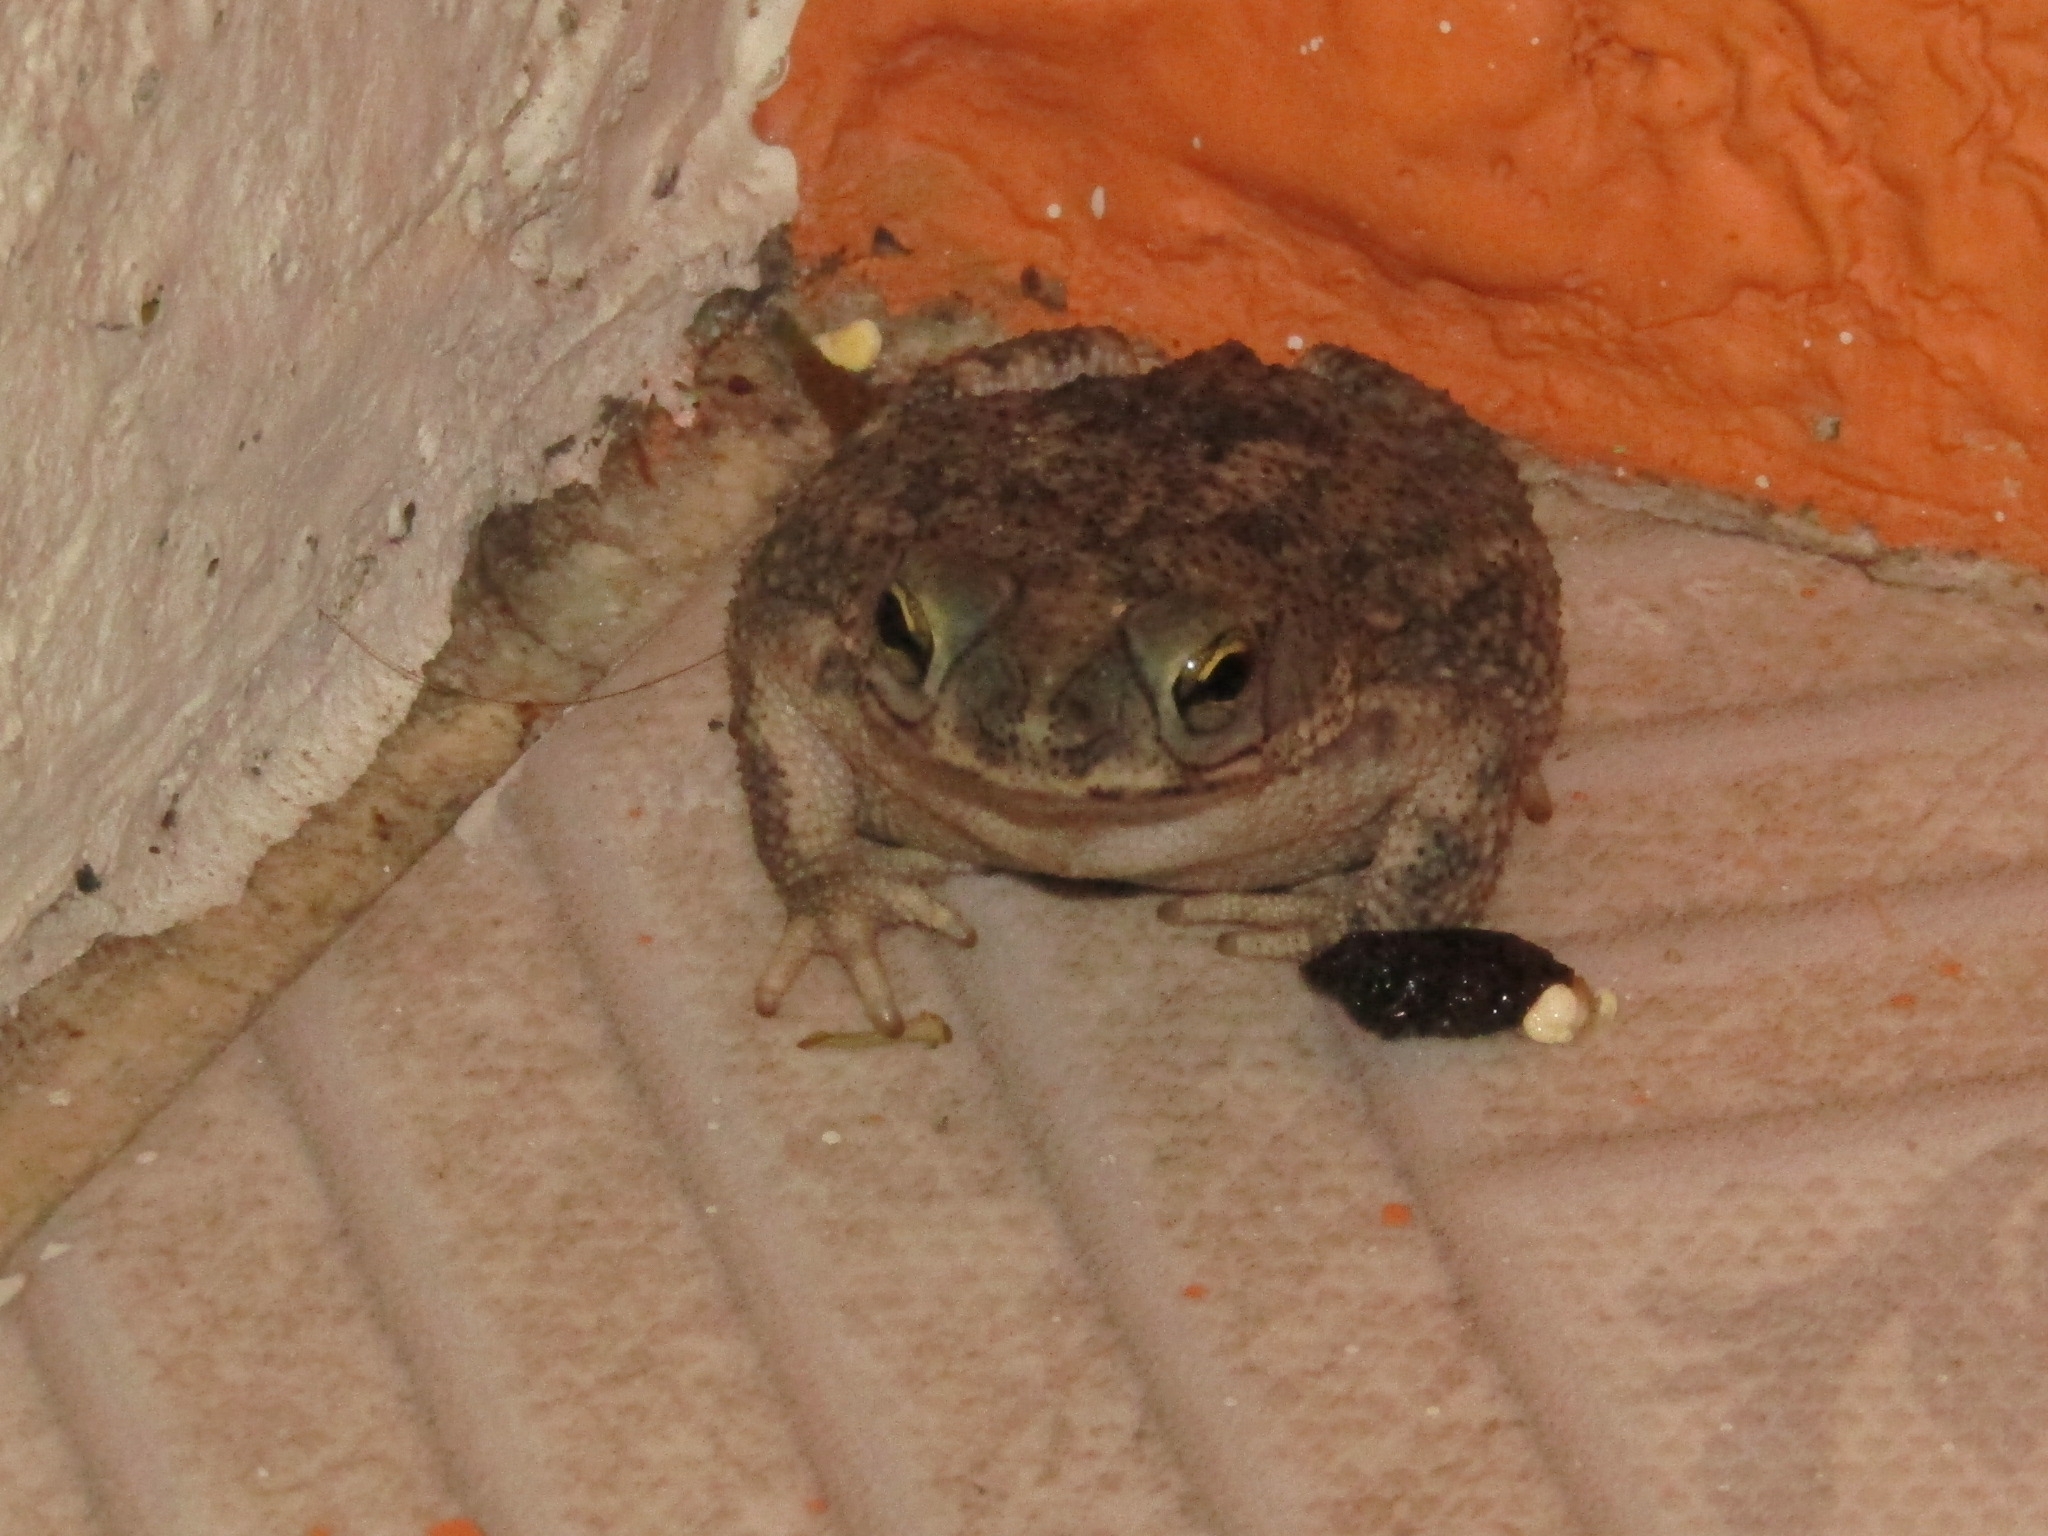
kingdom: Animalia
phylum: Chordata
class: Amphibia
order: Anura
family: Bufonidae
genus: Rhinella
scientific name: Rhinella diptycha
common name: Cope's toad
